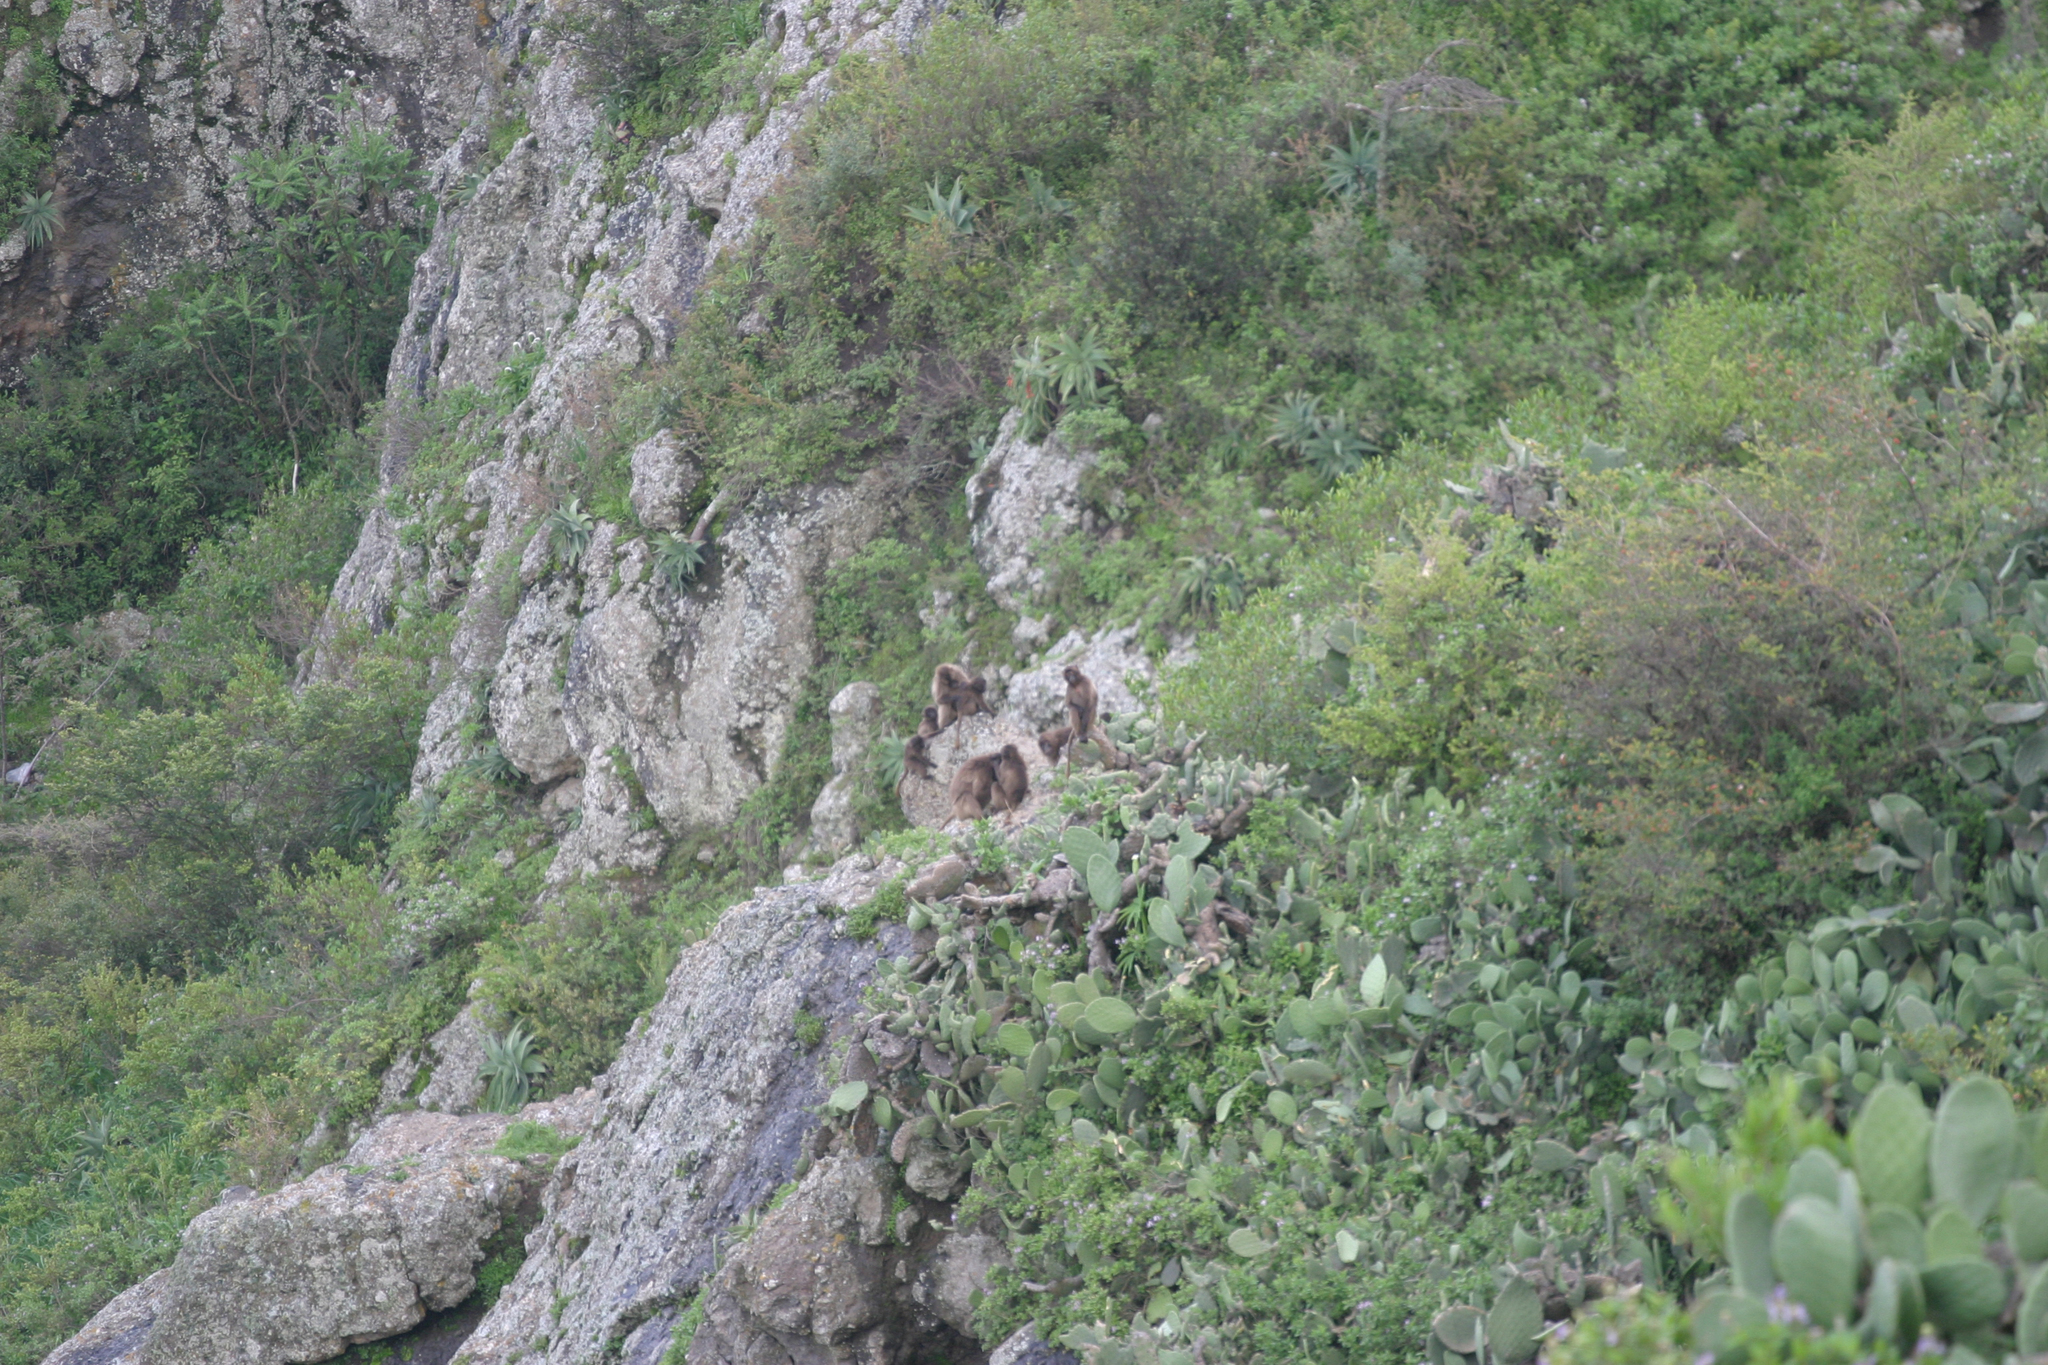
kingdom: Animalia
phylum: Chordata
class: Mammalia
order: Primates
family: Cercopithecidae
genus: Theropithecus
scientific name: Theropithecus gelada
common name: Gelada
